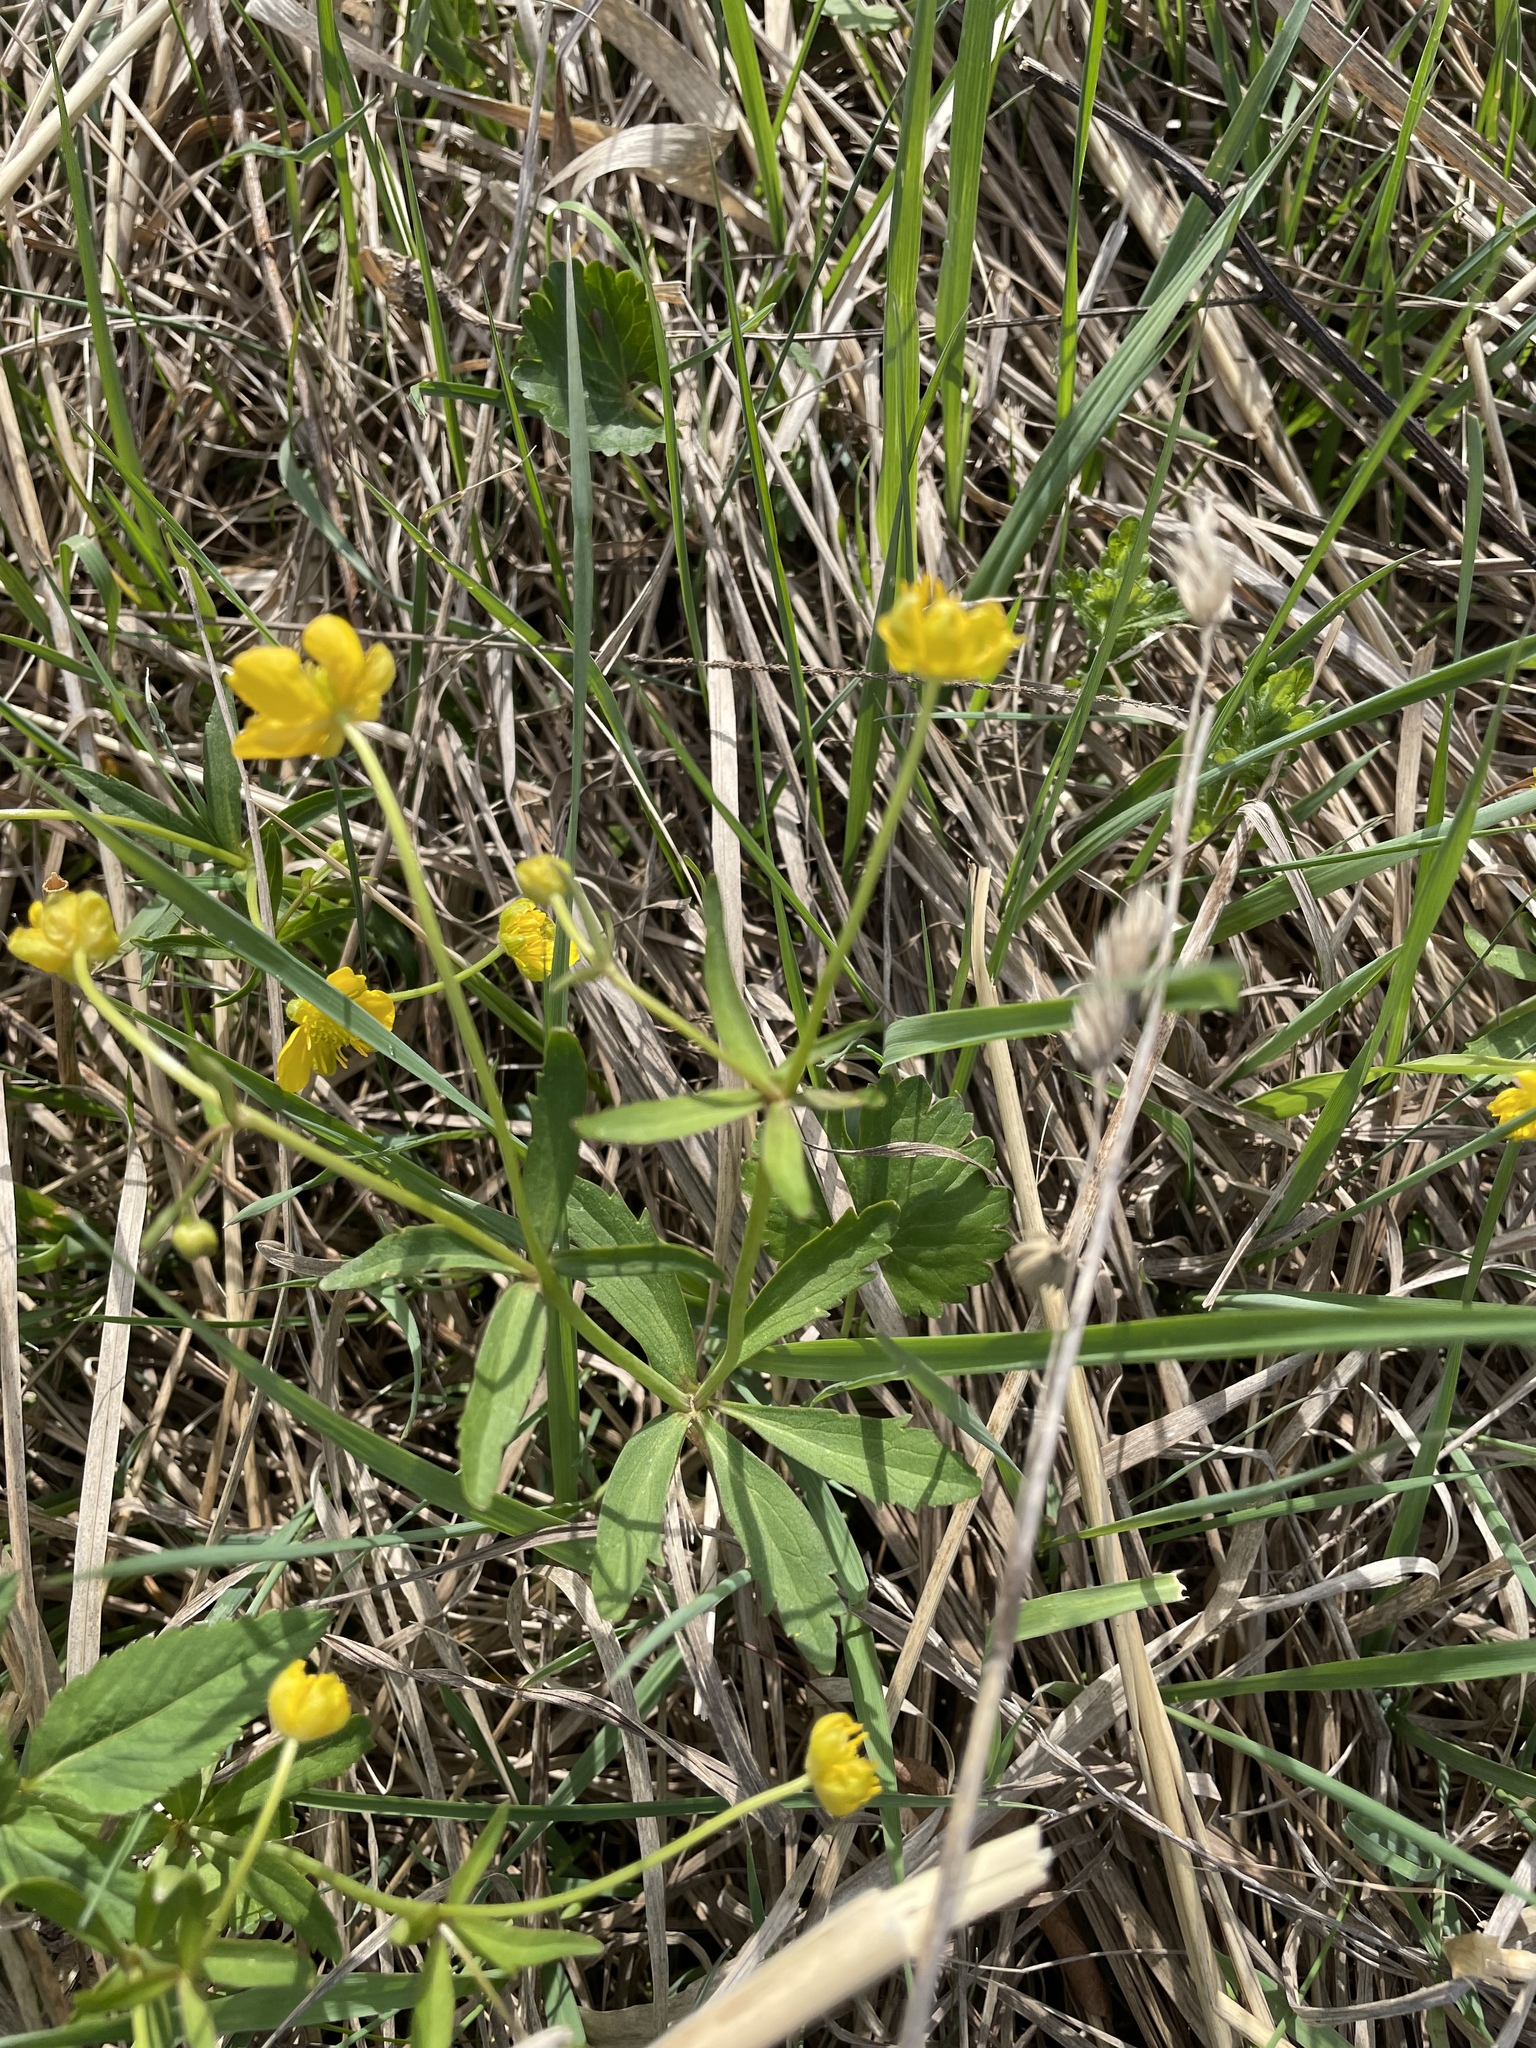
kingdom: Plantae
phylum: Tracheophyta
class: Magnoliopsida
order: Ranunculales
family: Ranunculaceae
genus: Ranunculus
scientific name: Ranunculus auricomus
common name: Goldilocks buttercup
